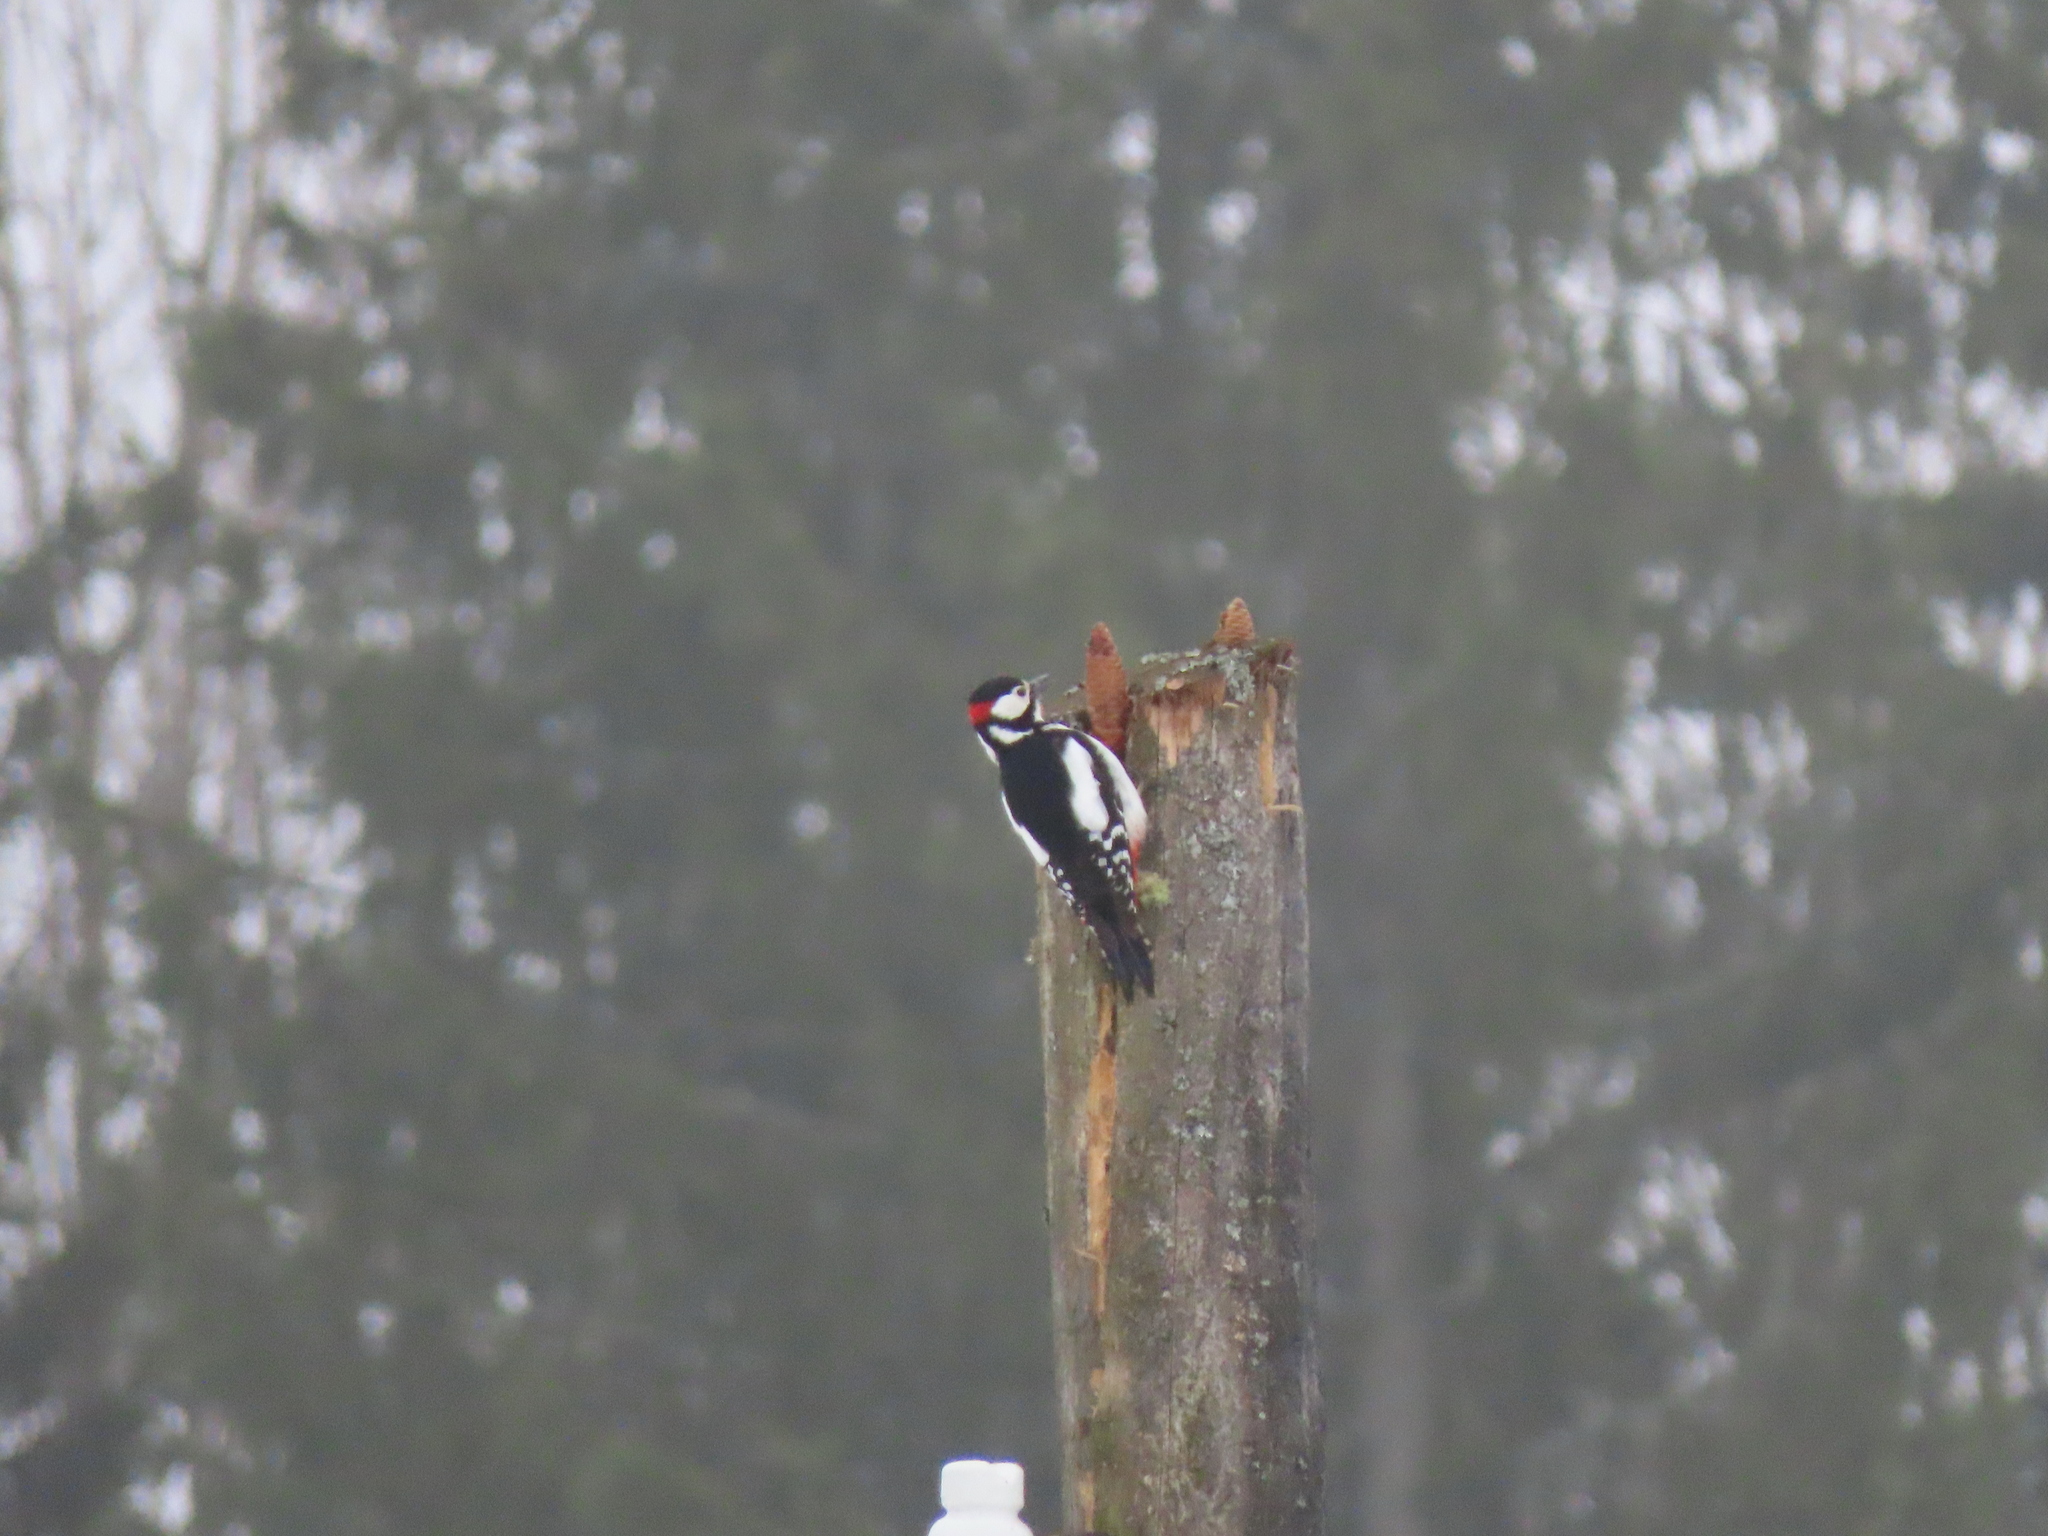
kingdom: Animalia
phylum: Chordata
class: Aves
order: Piciformes
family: Picidae
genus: Dendrocopos
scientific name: Dendrocopos major
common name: Great spotted woodpecker
